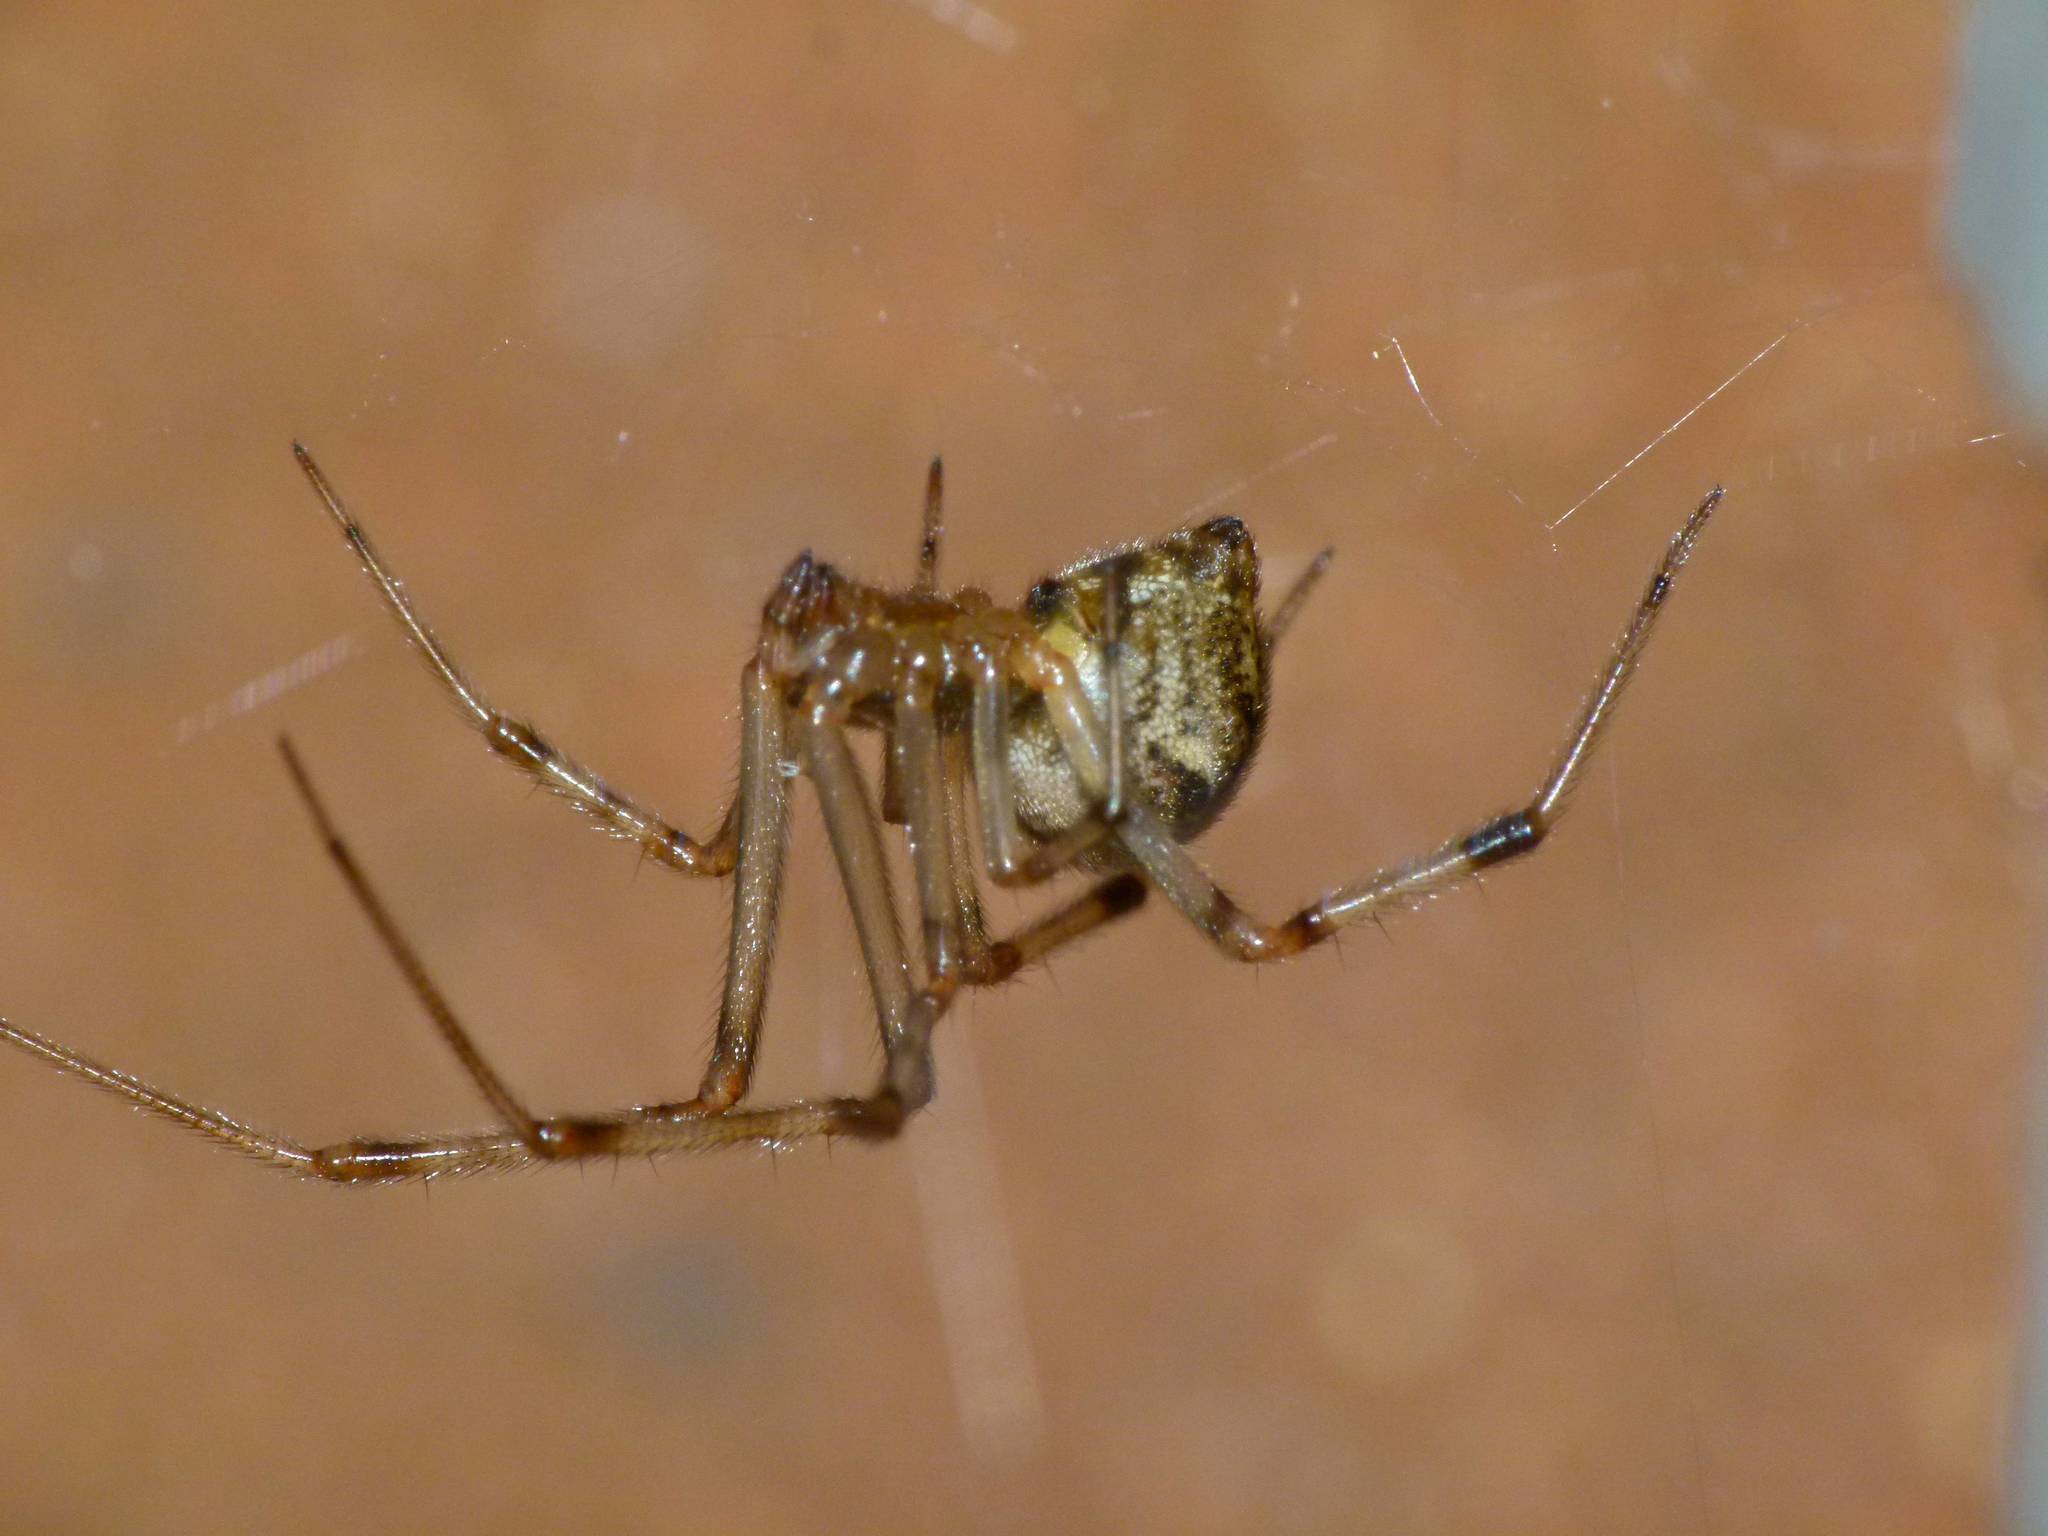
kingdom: Animalia
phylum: Arthropoda
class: Arachnida
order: Araneae
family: Theridiidae
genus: Parasteatoda
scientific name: Parasteatoda tepidariorum
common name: Common house spider
